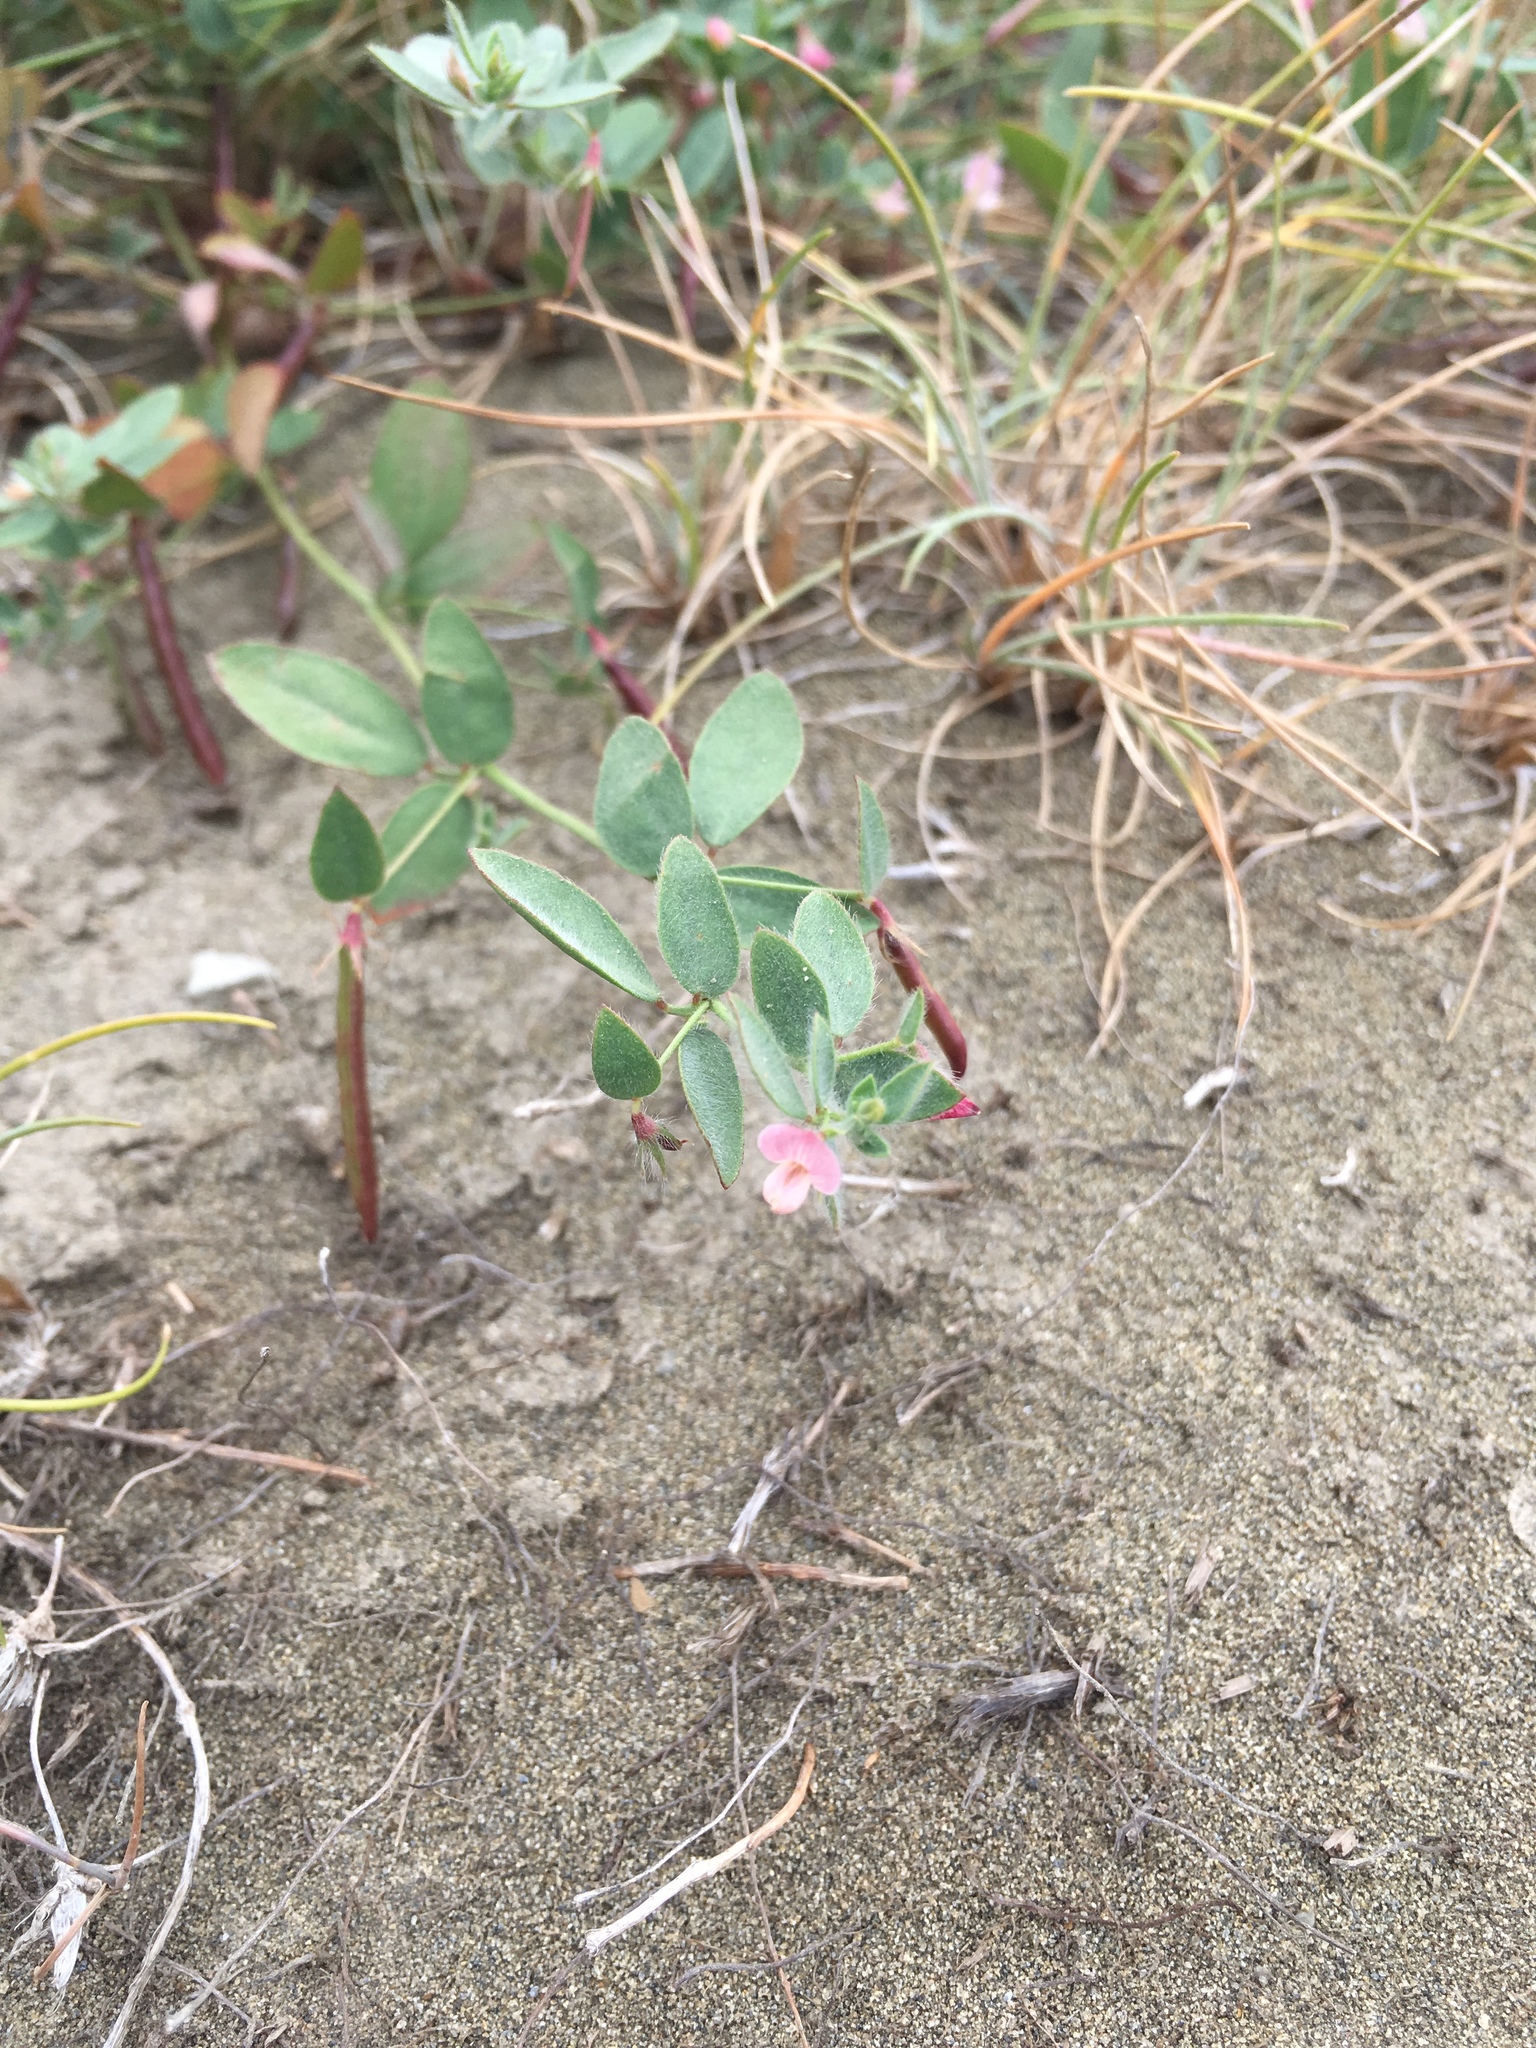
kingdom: Plantae
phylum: Tracheophyta
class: Magnoliopsida
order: Fabales
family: Fabaceae
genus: Acmispon
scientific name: Acmispon americanus
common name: American bird's-foot trefoil
